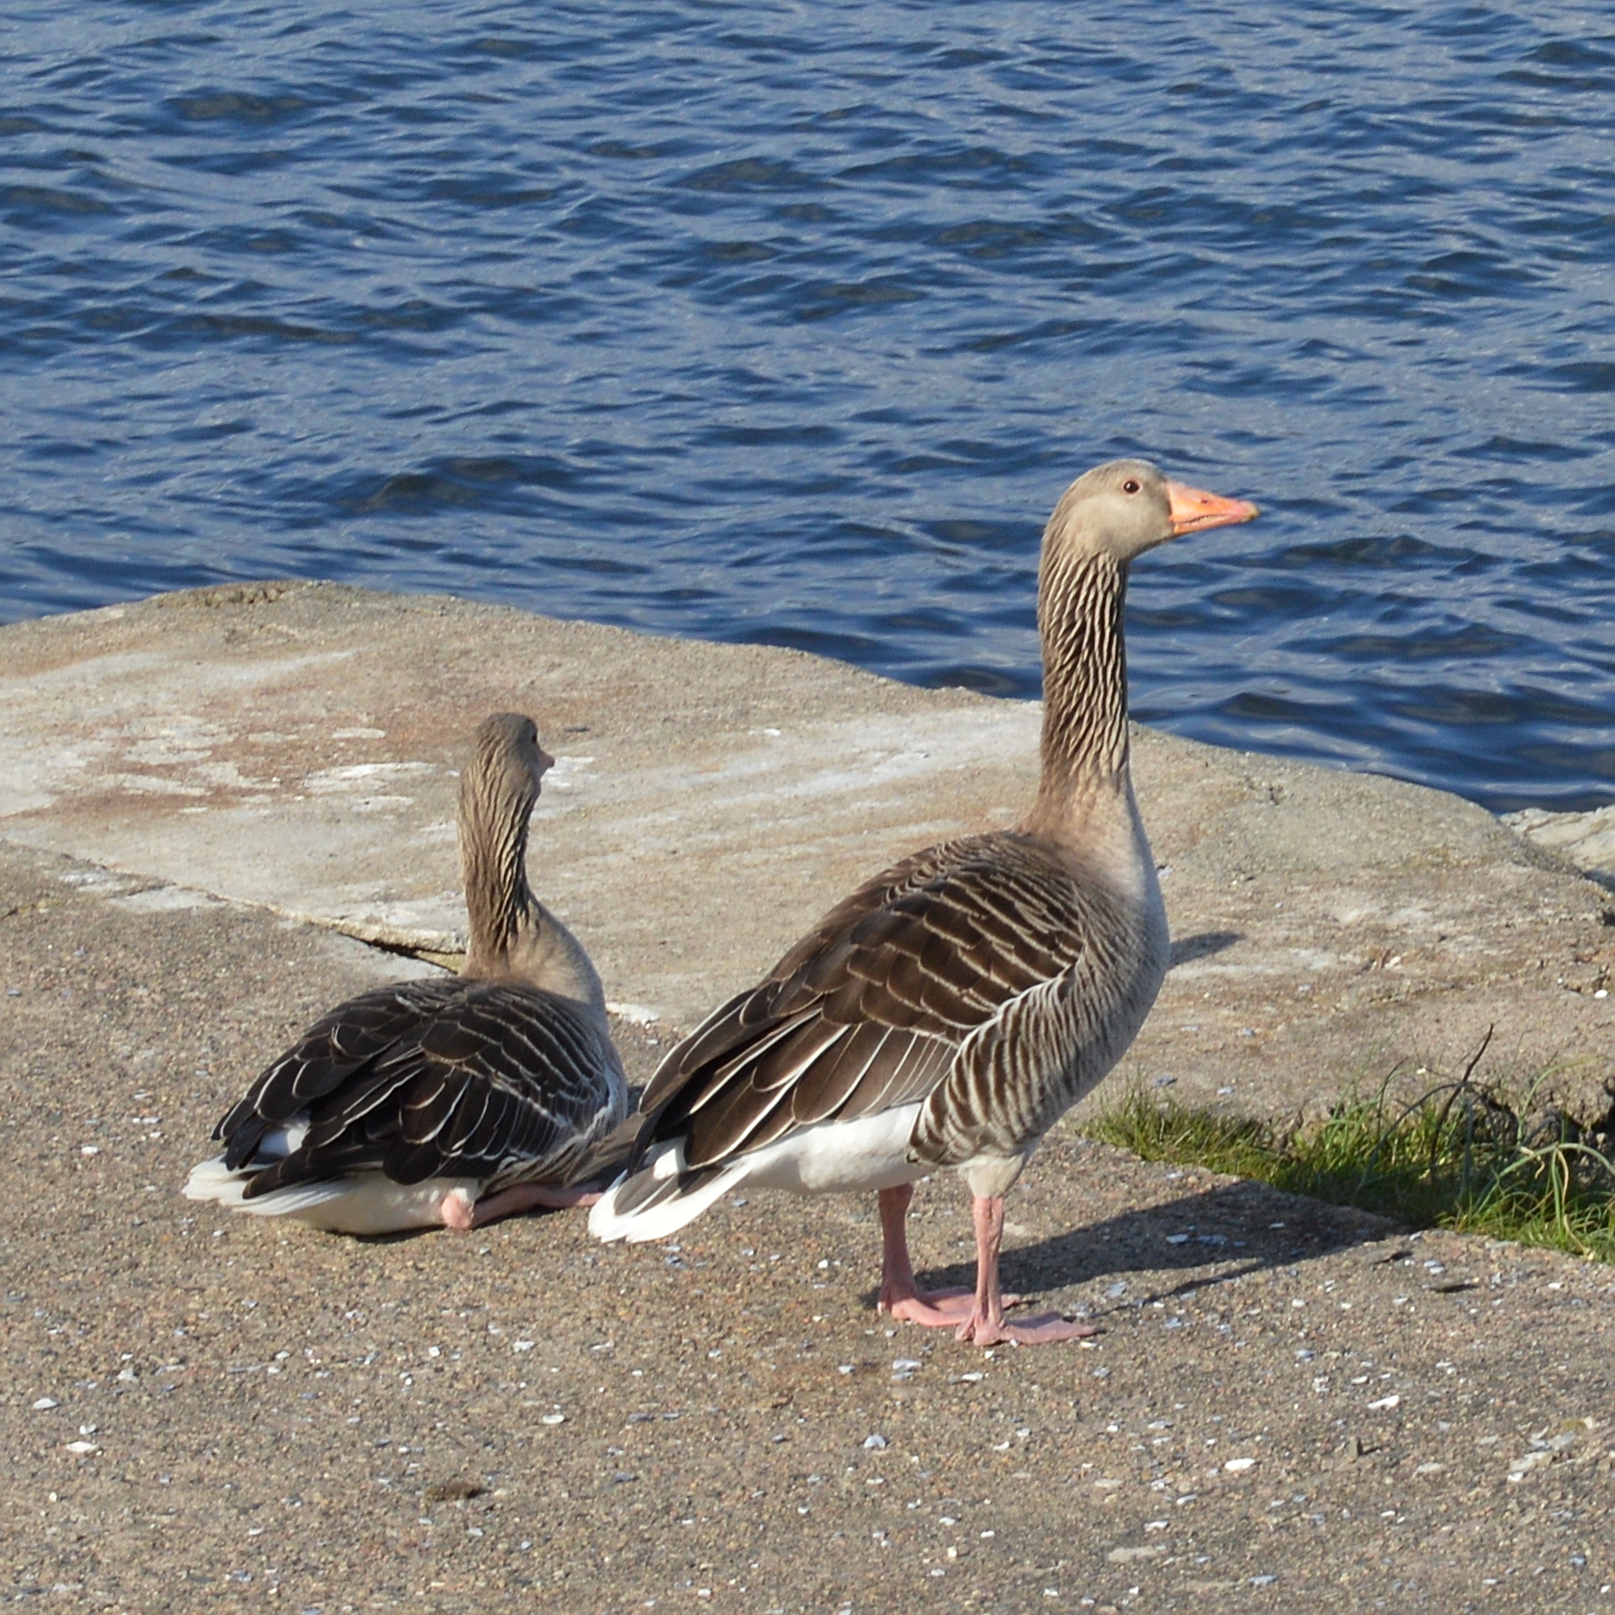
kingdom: Animalia
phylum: Chordata
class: Aves
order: Anseriformes
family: Anatidae
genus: Anser
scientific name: Anser anser
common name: Greylag goose
